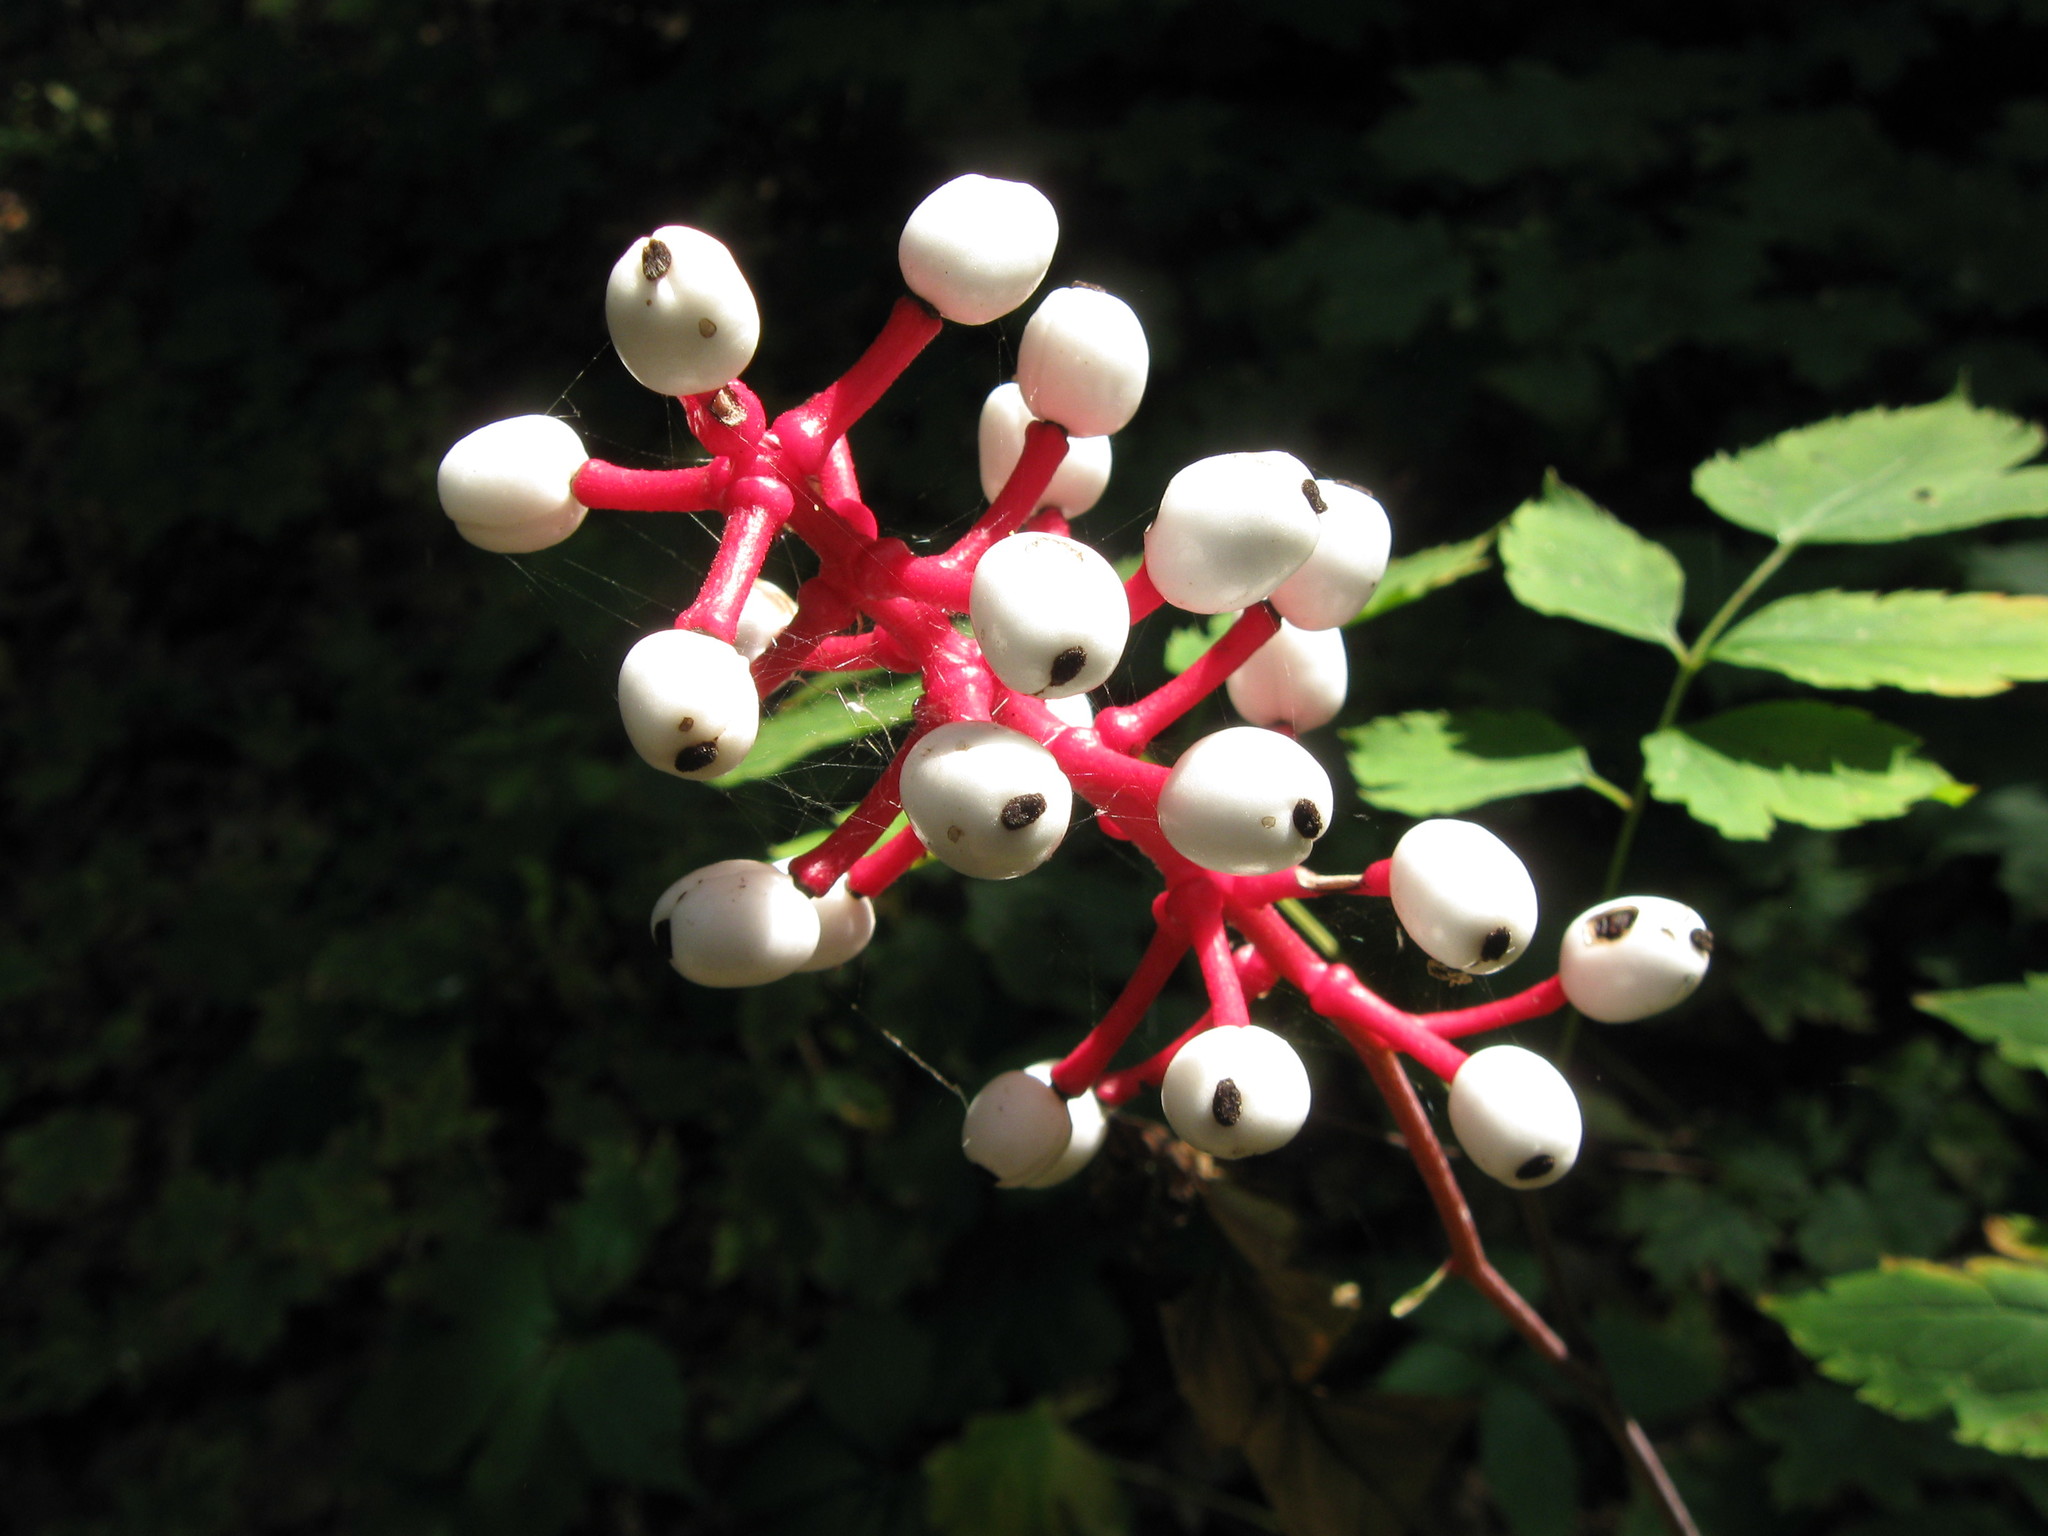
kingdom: Plantae
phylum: Tracheophyta
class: Magnoliopsida
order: Ranunculales
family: Ranunculaceae
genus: Actaea
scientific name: Actaea pachypoda
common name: Doll's-eyes
